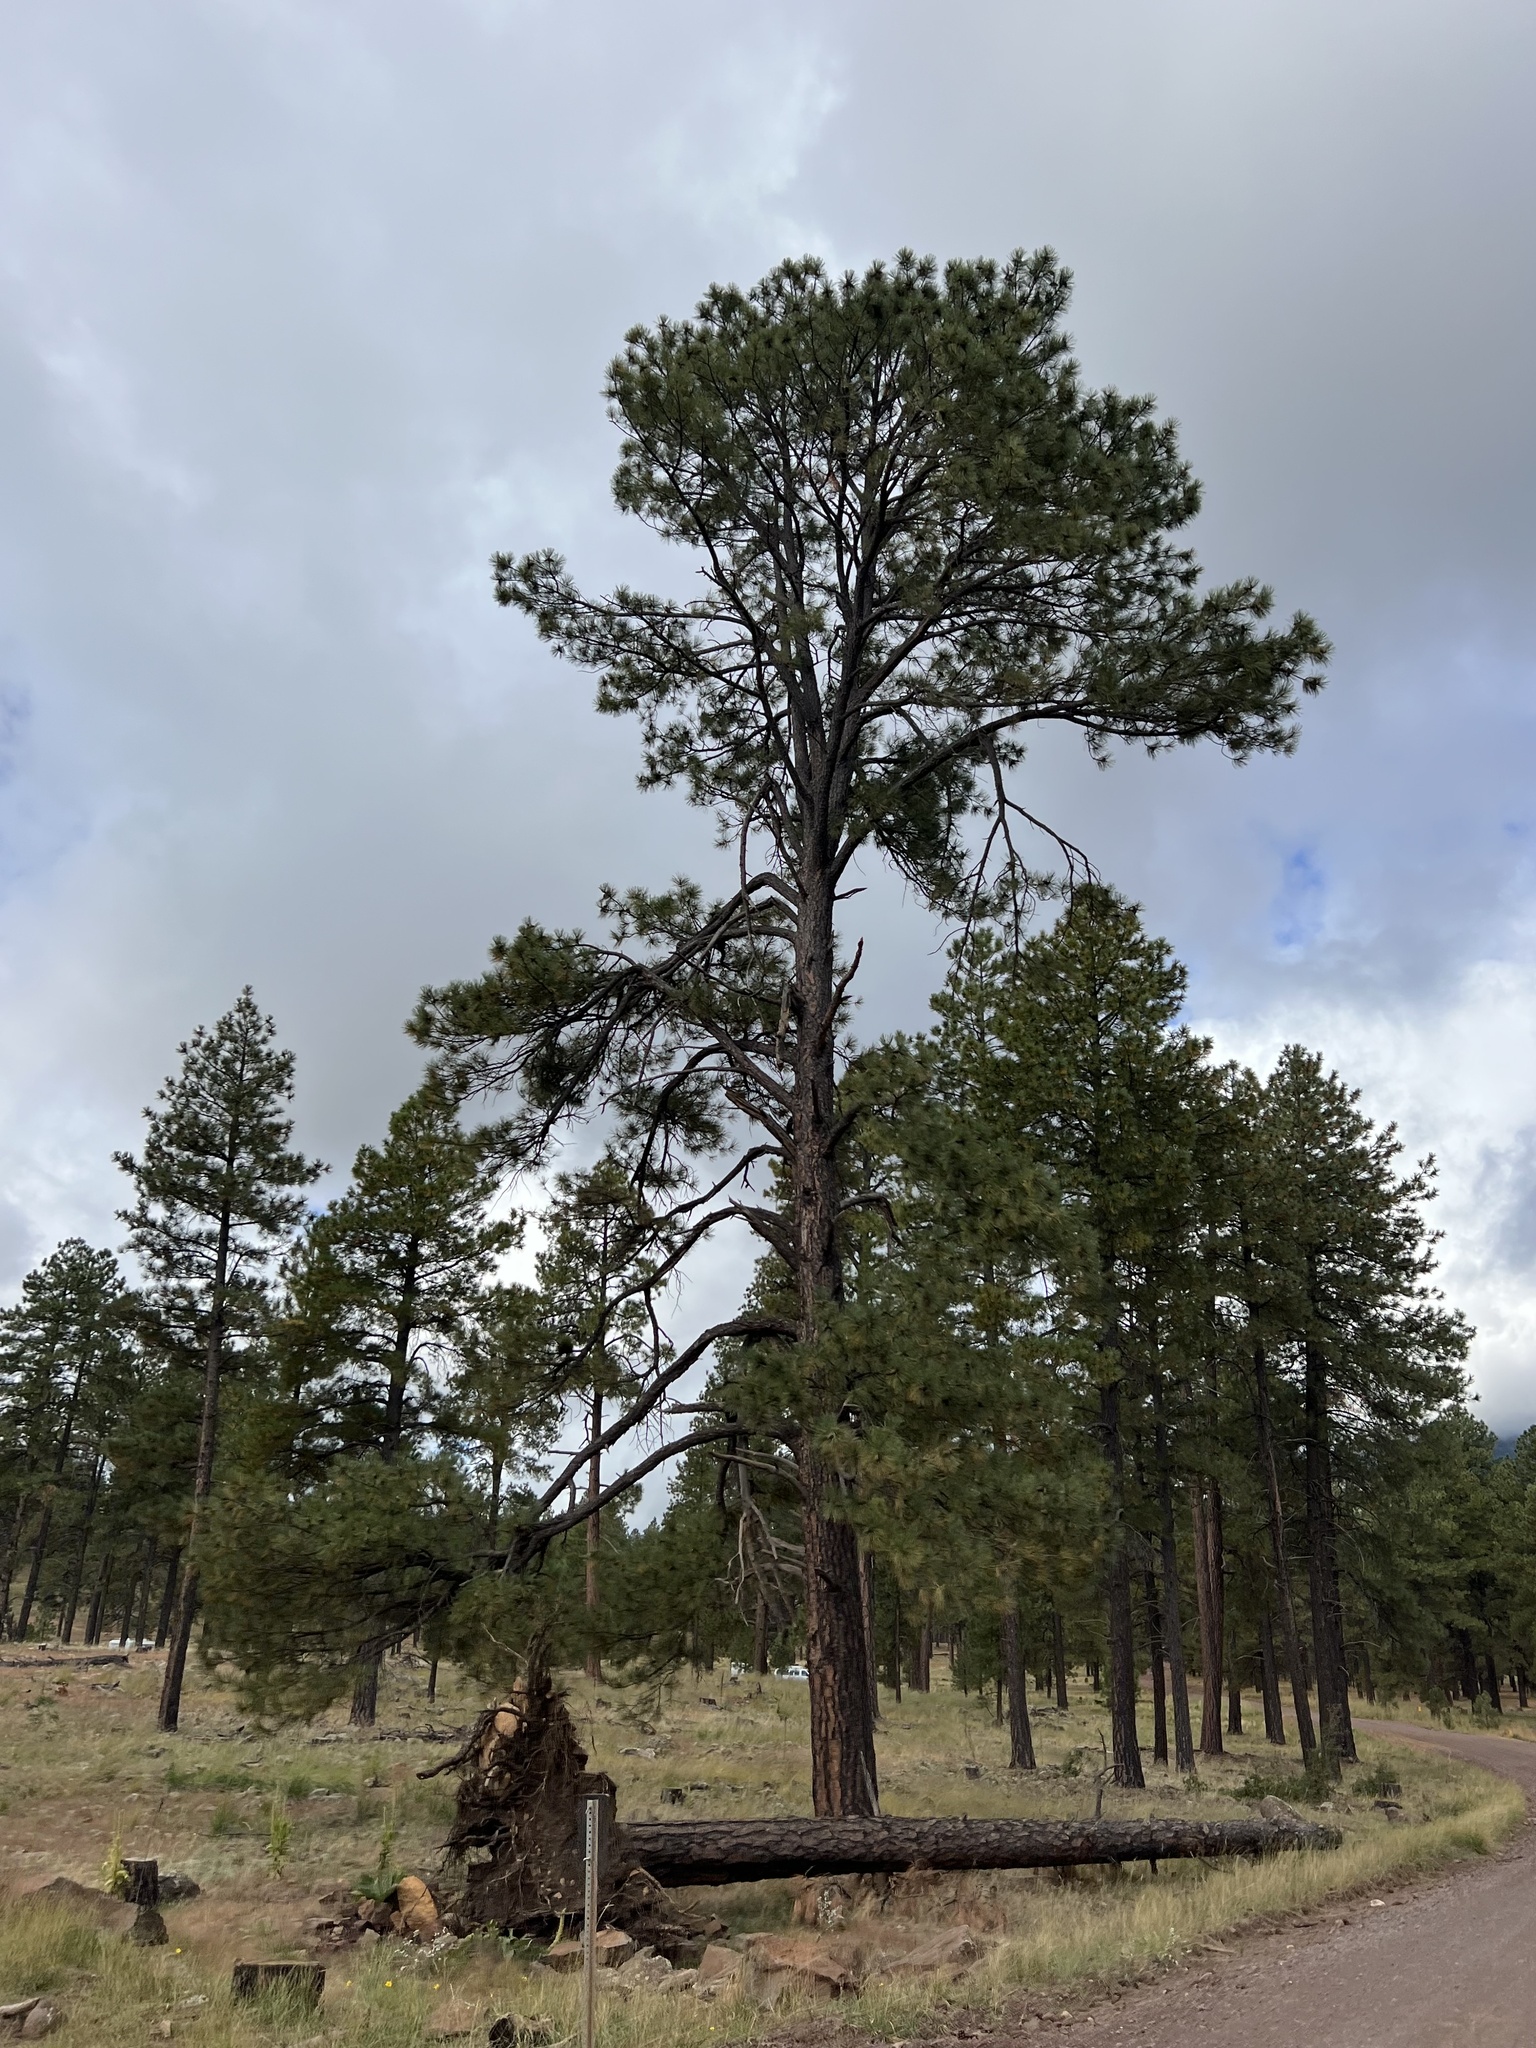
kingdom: Plantae
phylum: Tracheophyta
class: Pinopsida
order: Pinales
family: Pinaceae
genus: Pinus
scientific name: Pinus ponderosa
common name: Western yellow-pine
